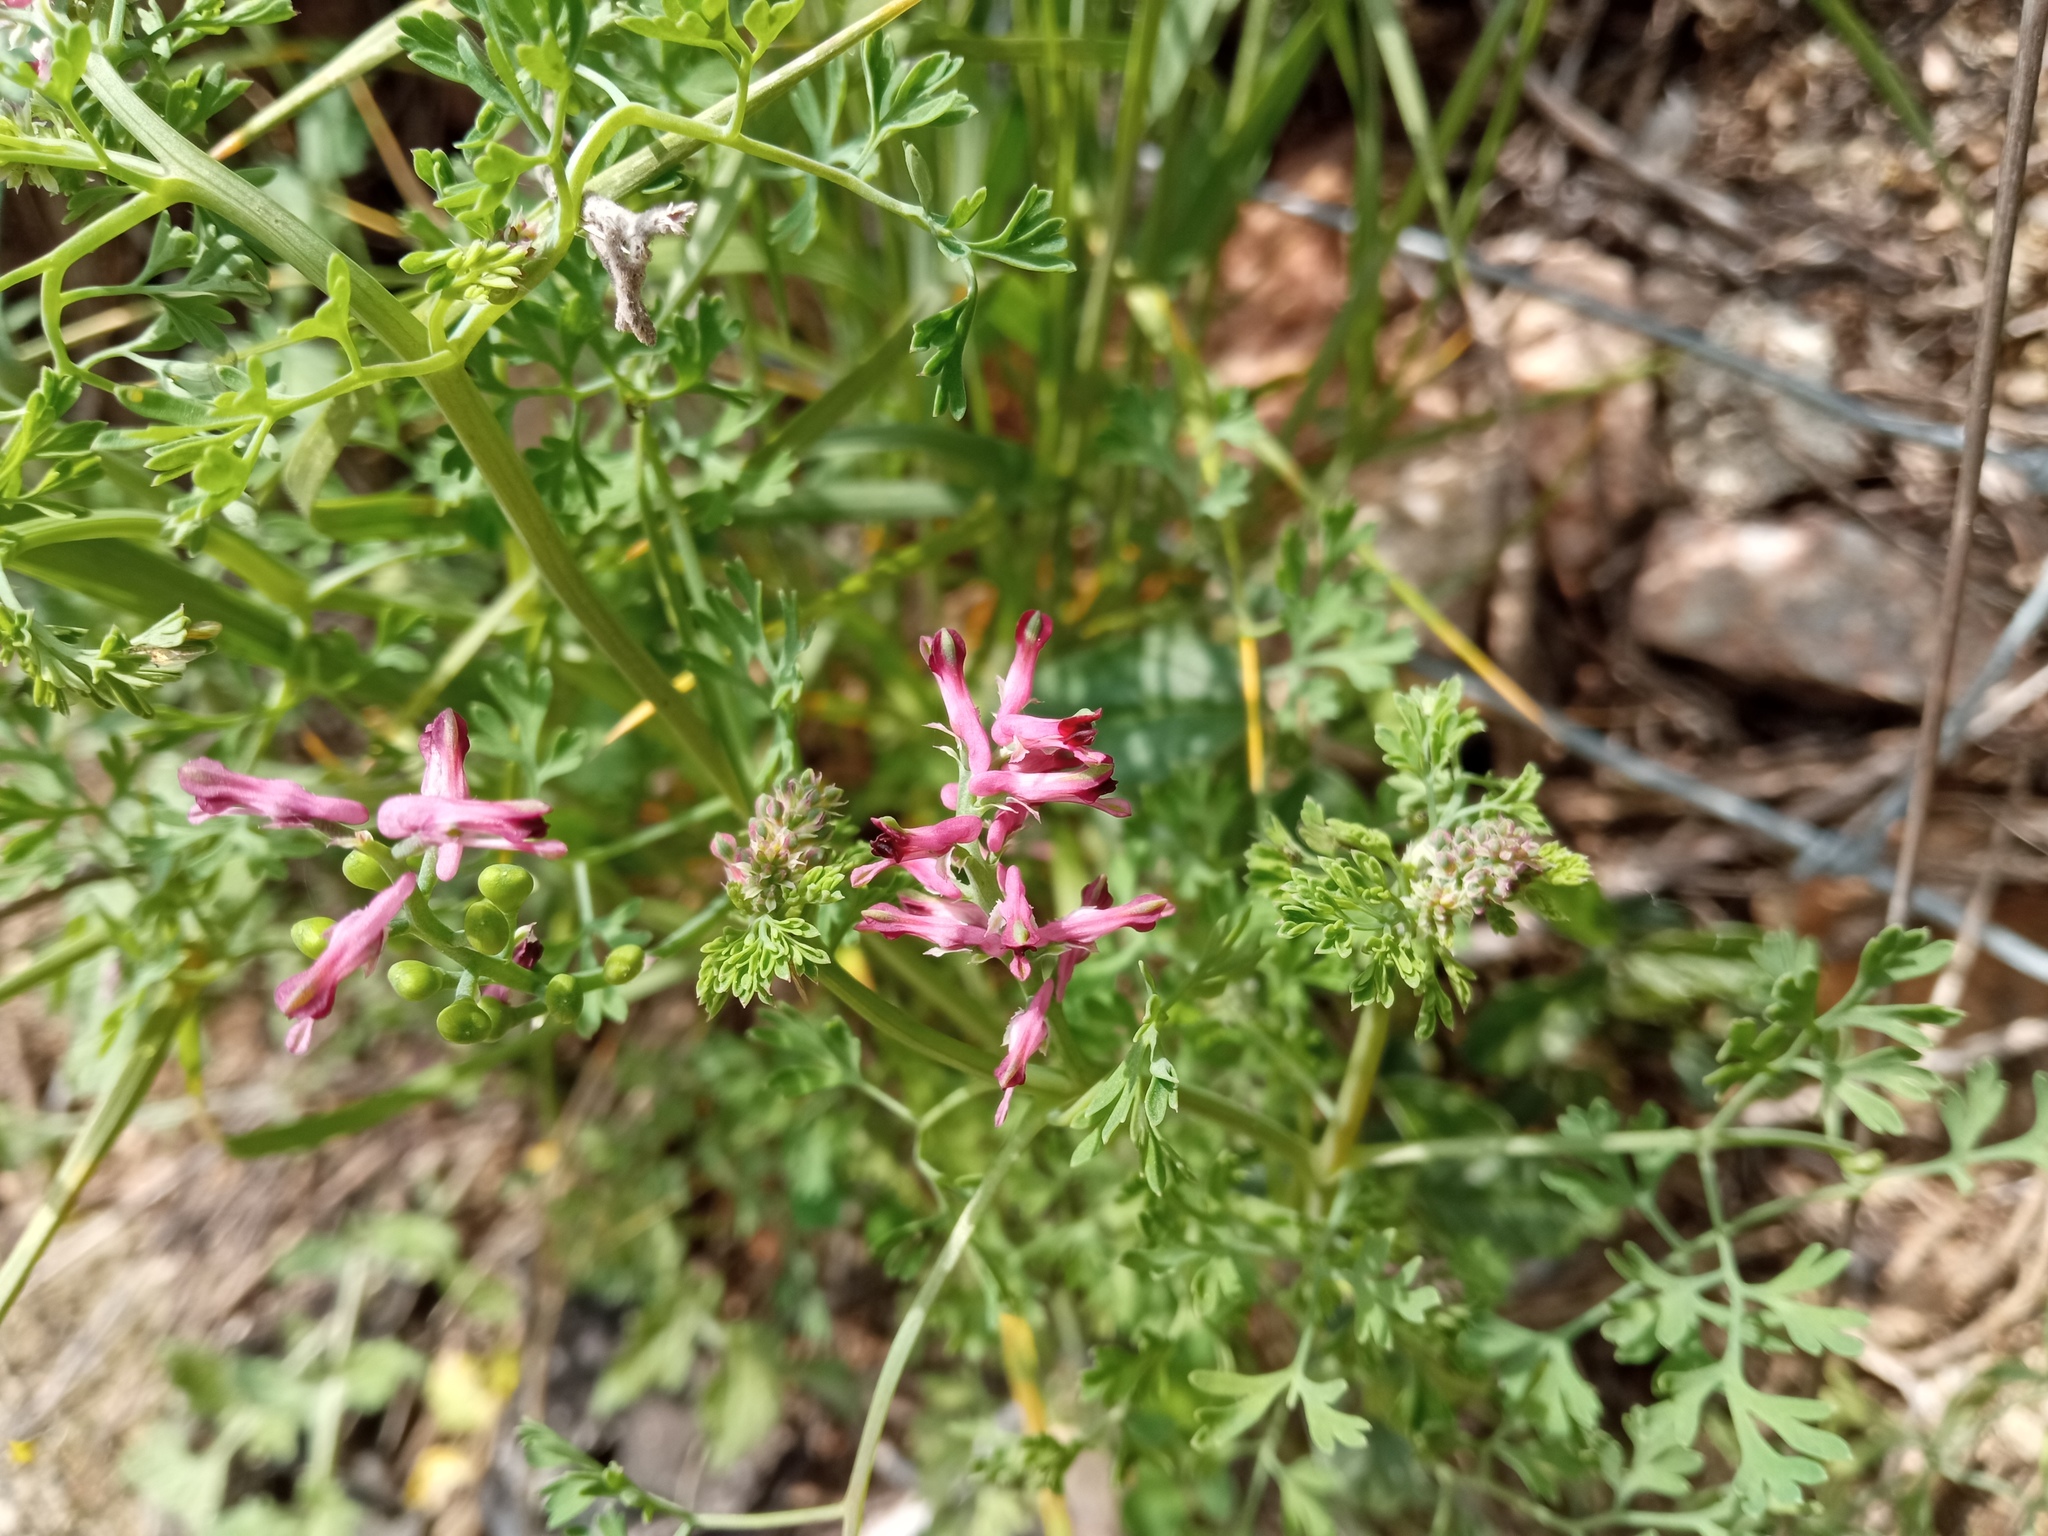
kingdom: Plantae
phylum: Tracheophyta
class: Magnoliopsida
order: Ranunculales
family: Papaveraceae
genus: Fumaria
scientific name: Fumaria officinalis
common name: Common fumitory
